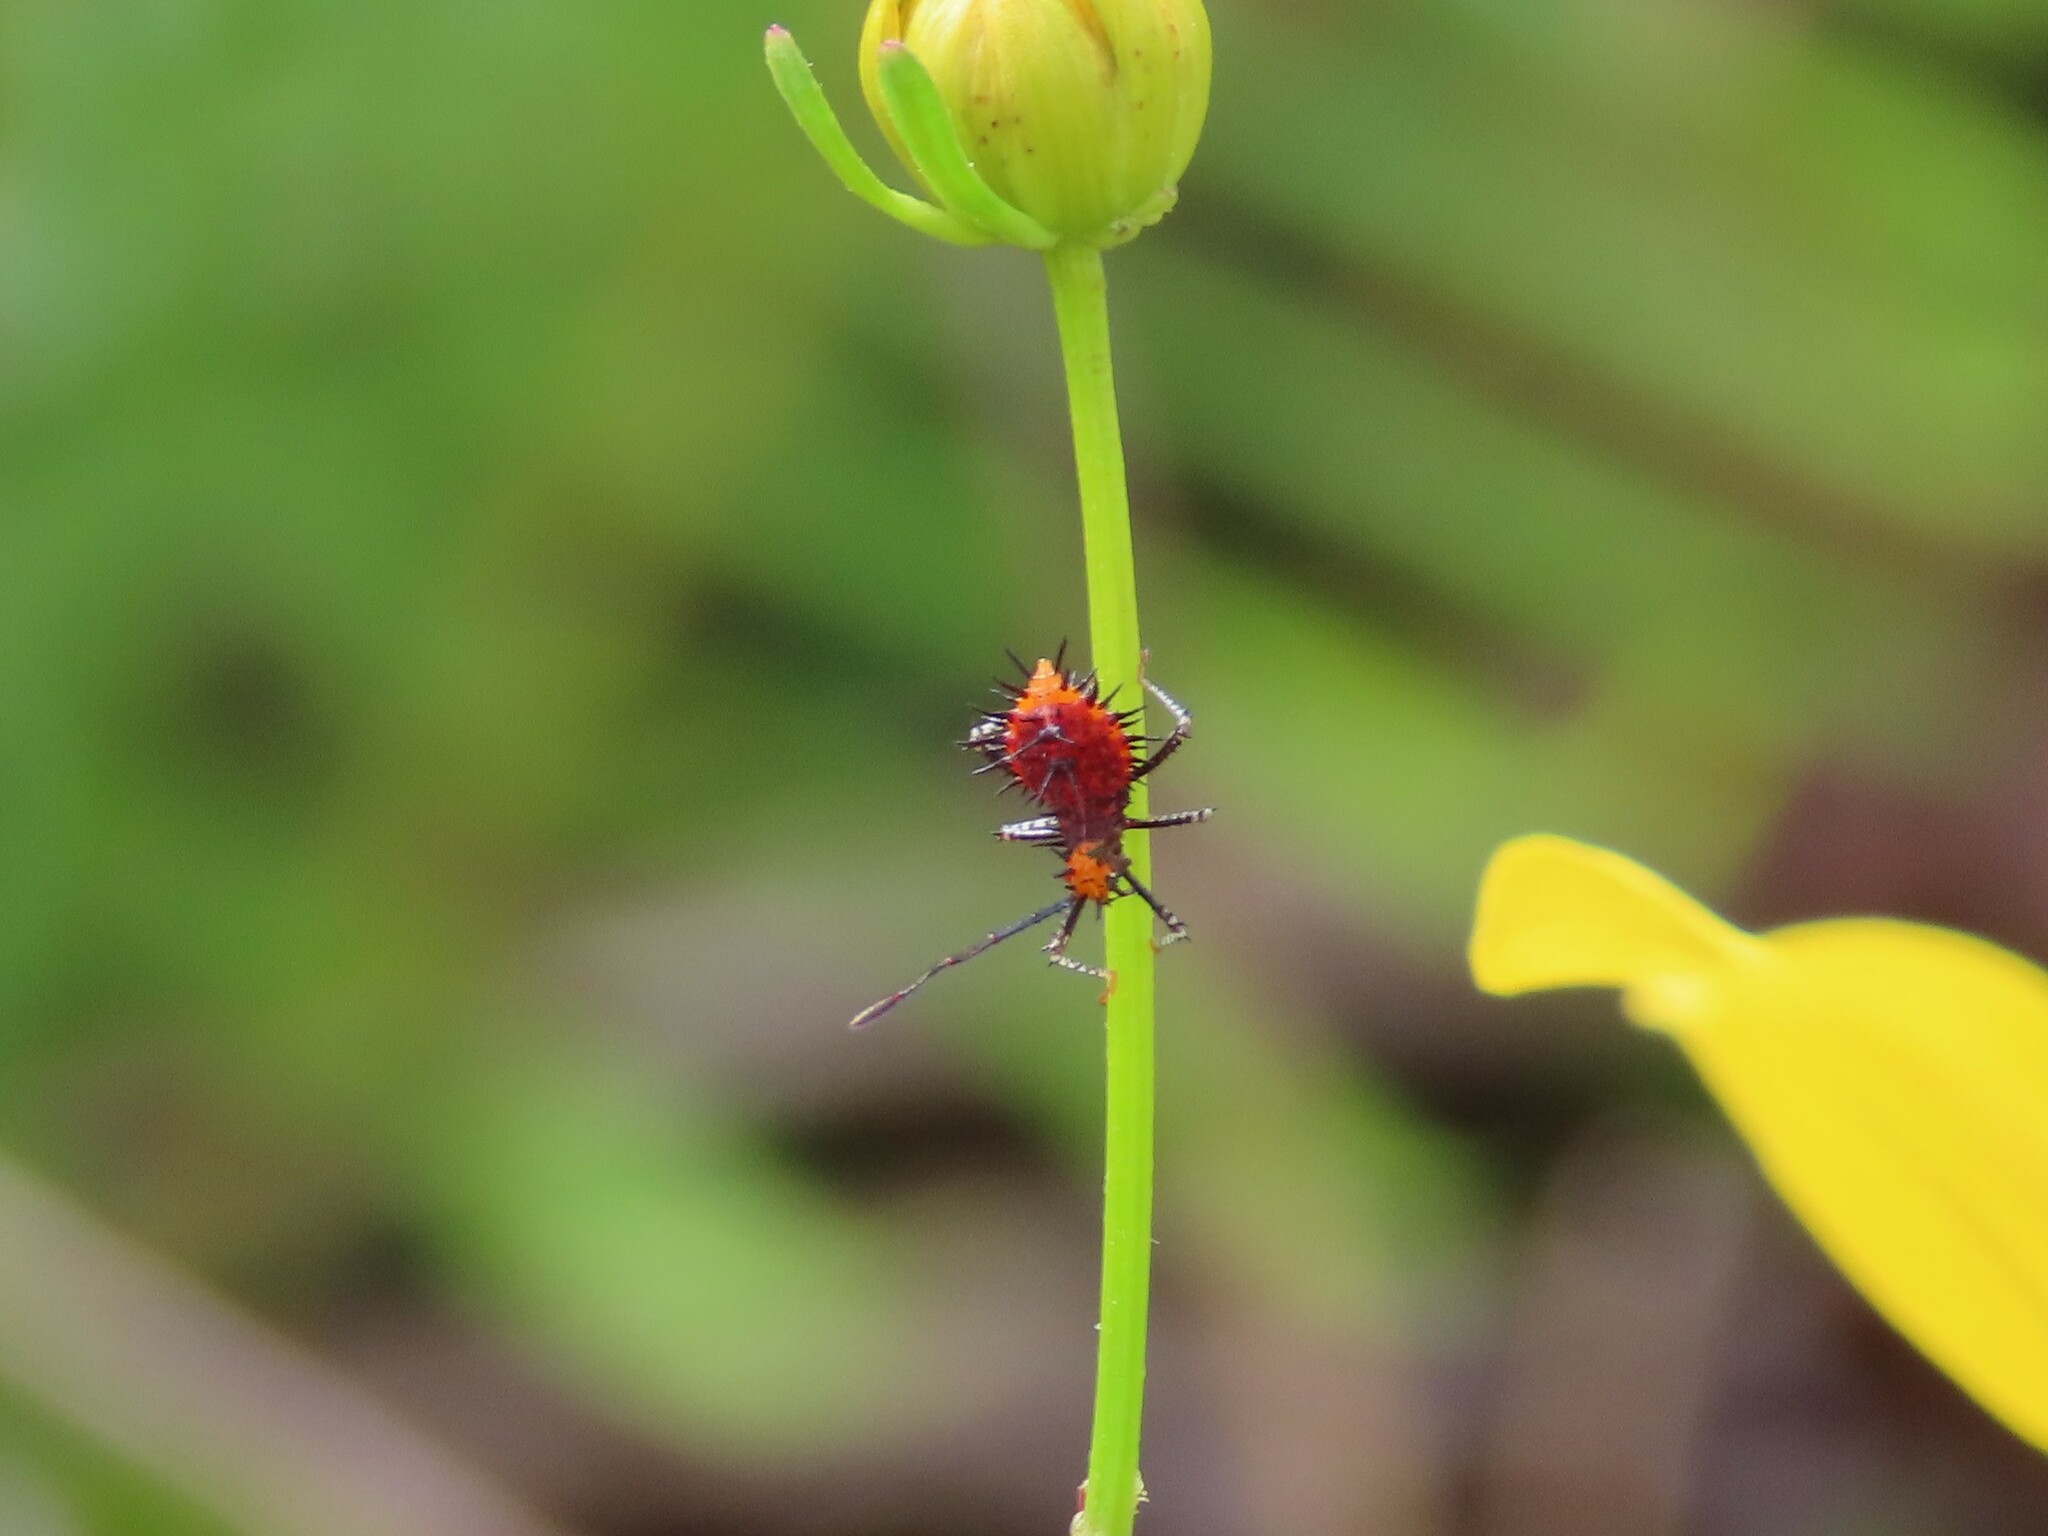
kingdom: Animalia
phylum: Arthropoda
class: Insecta
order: Hemiptera
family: Coreidae
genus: Euthochtha
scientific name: Euthochtha galeator
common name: Helmeted squash bug
